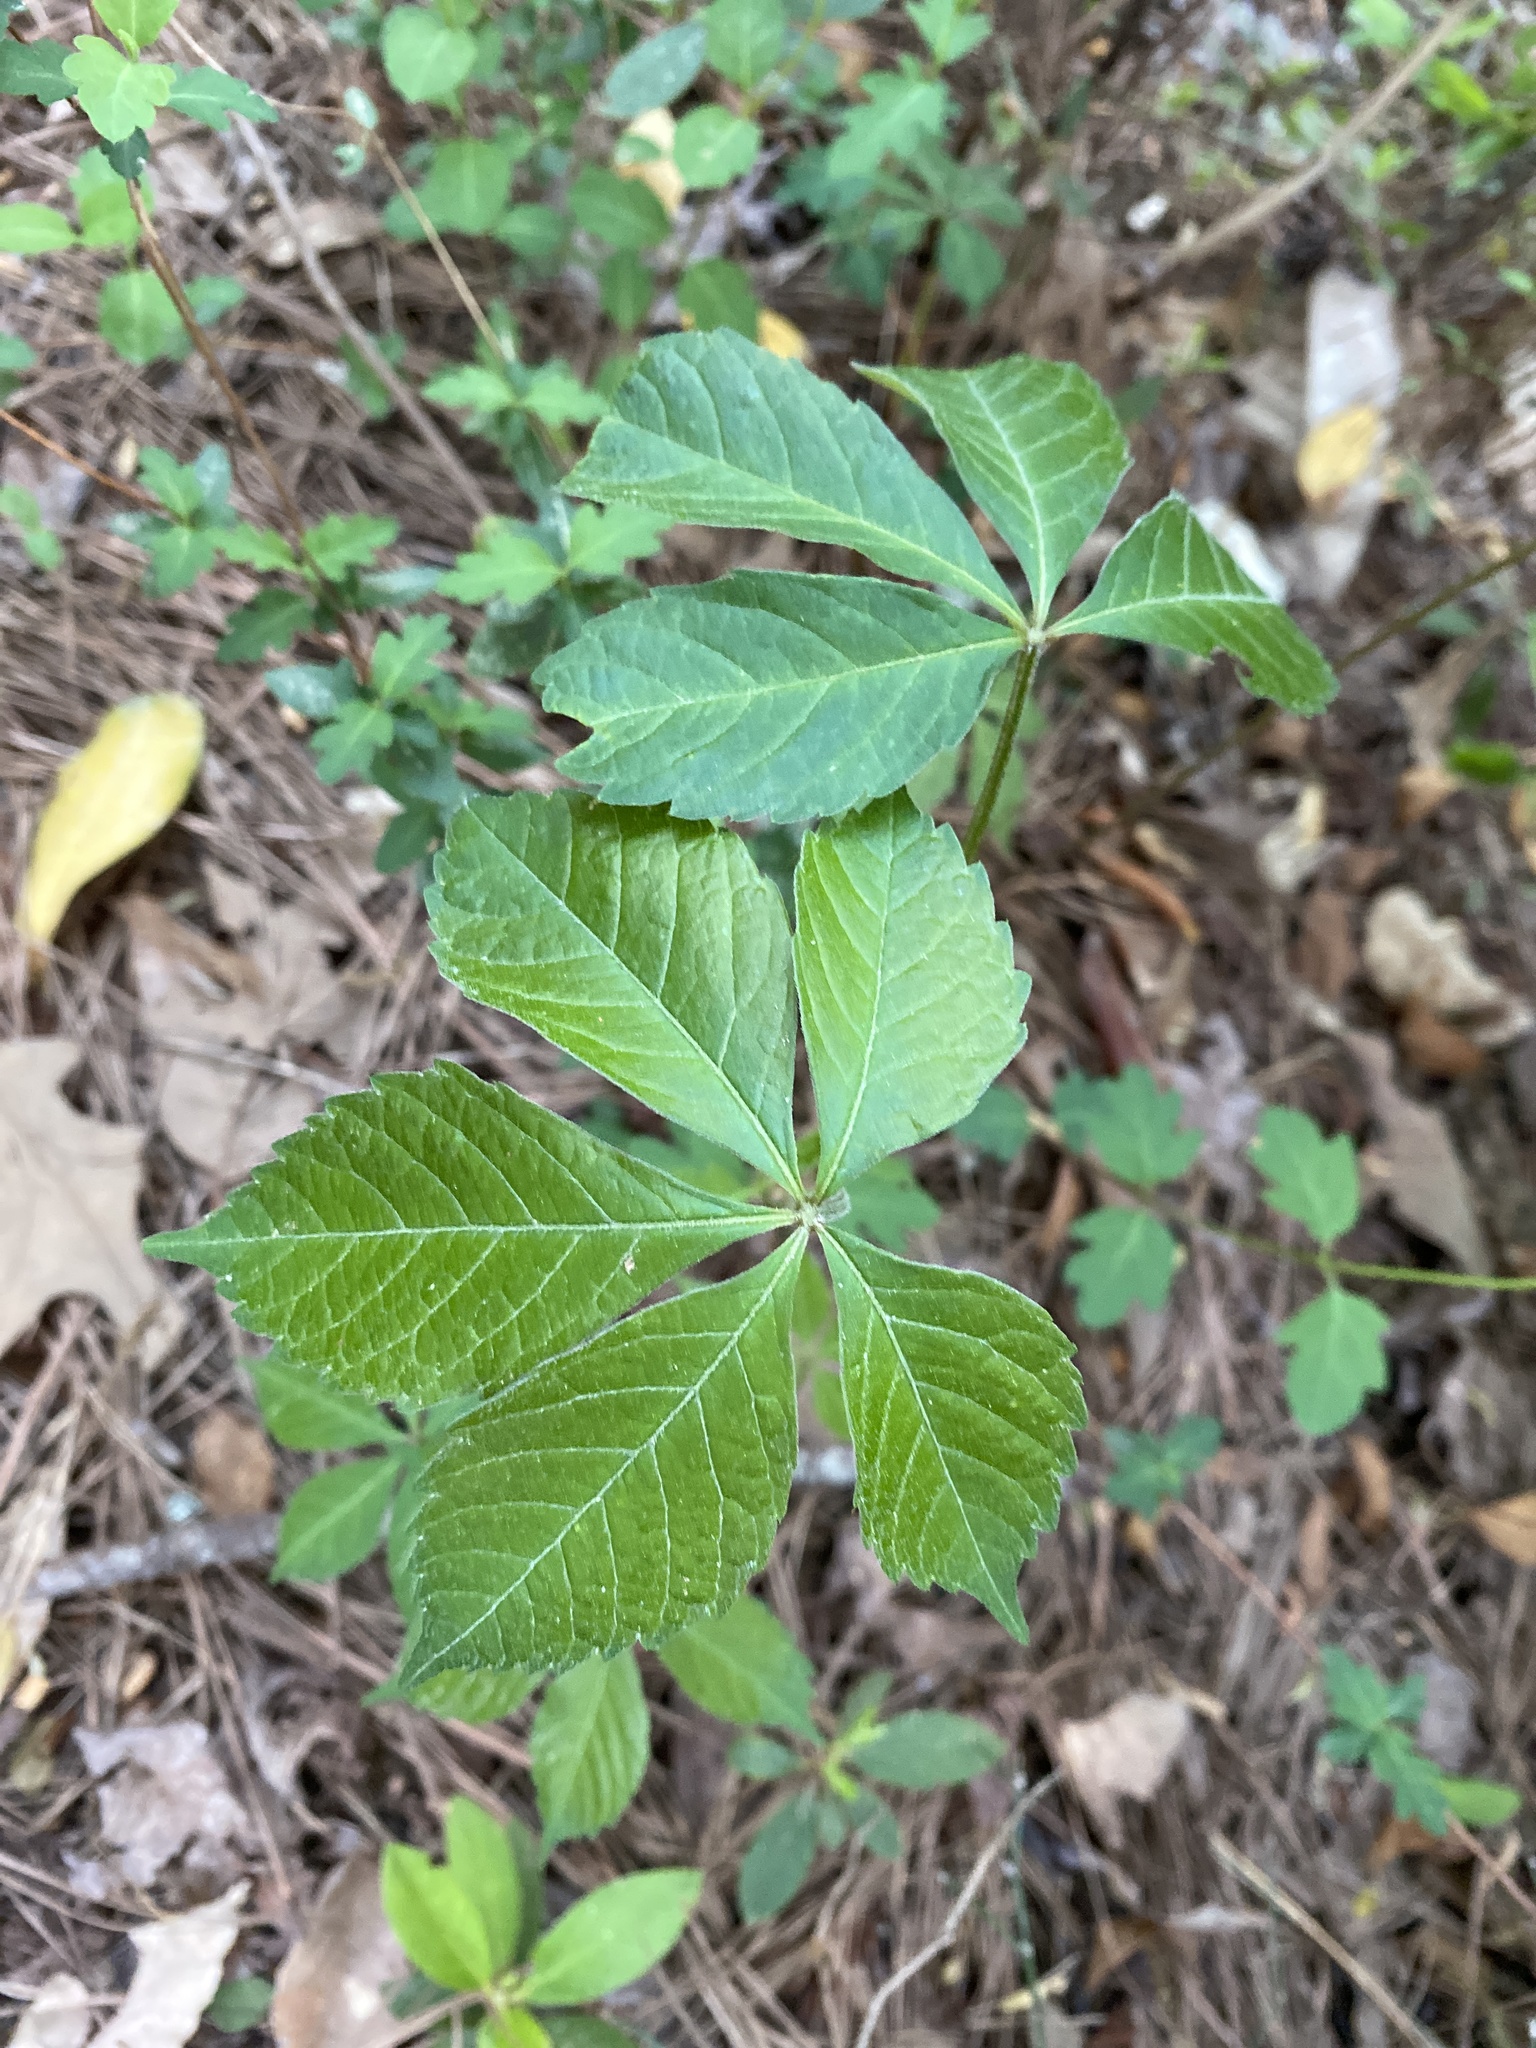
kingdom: Plantae
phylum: Tracheophyta
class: Magnoliopsida
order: Vitales
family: Vitaceae
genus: Parthenocissus
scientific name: Parthenocissus quinquefolia
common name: Virginia-creeper
